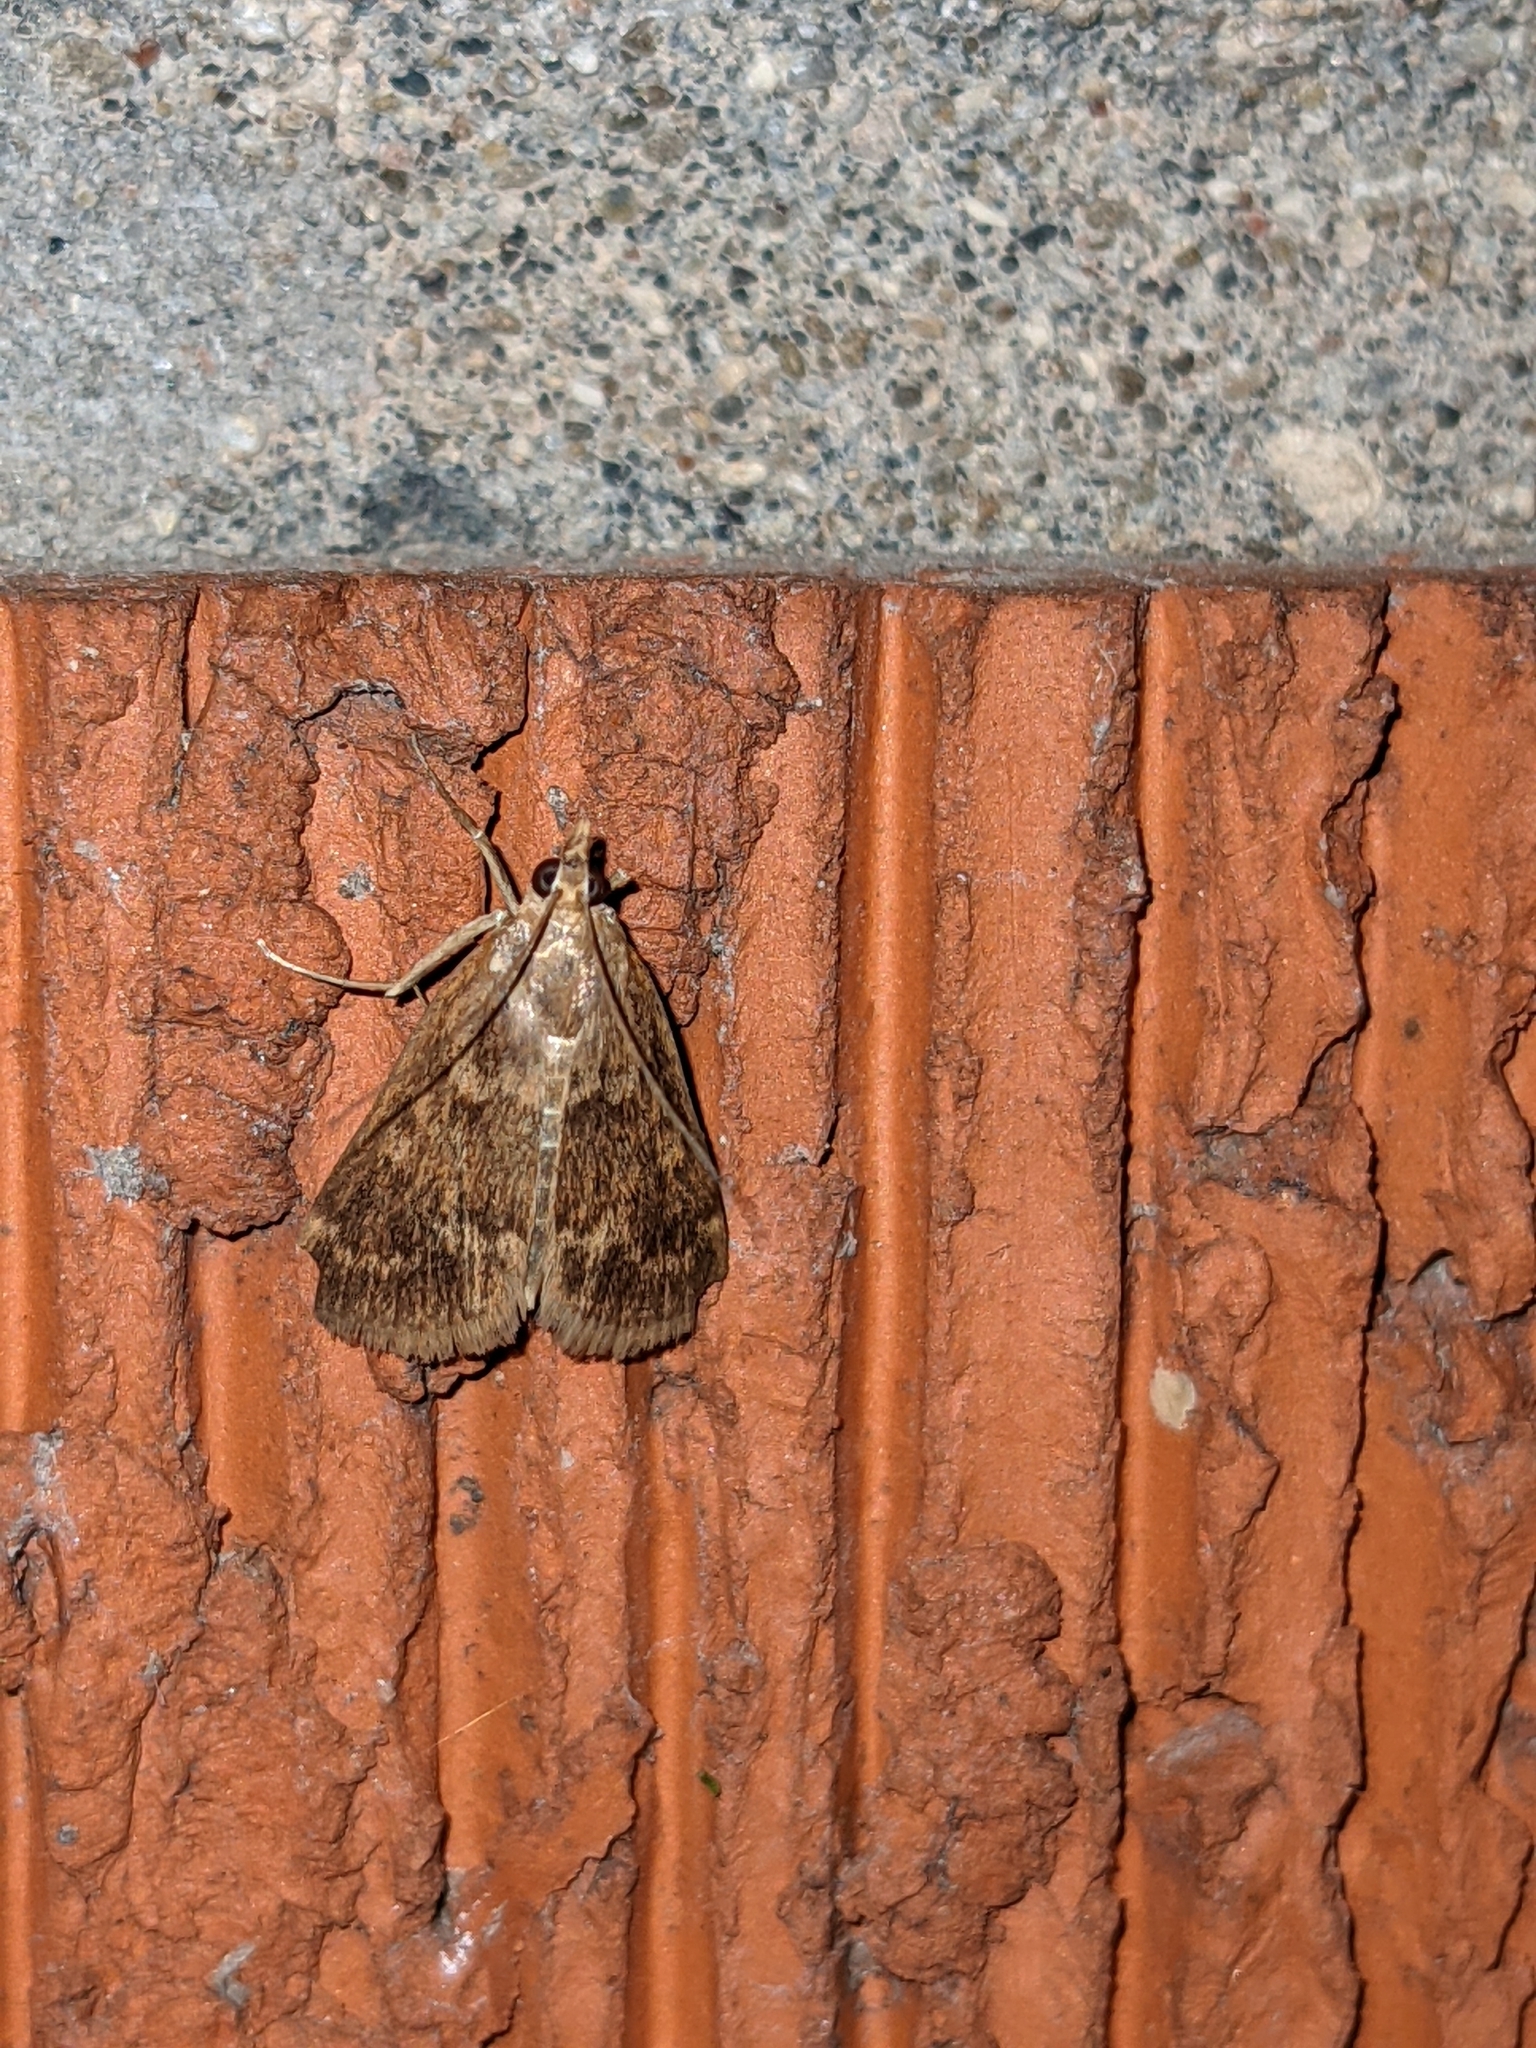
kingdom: Animalia
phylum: Arthropoda
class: Insecta
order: Lepidoptera
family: Crambidae
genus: Achyra
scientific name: Achyra rantalis
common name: Garden webworm
